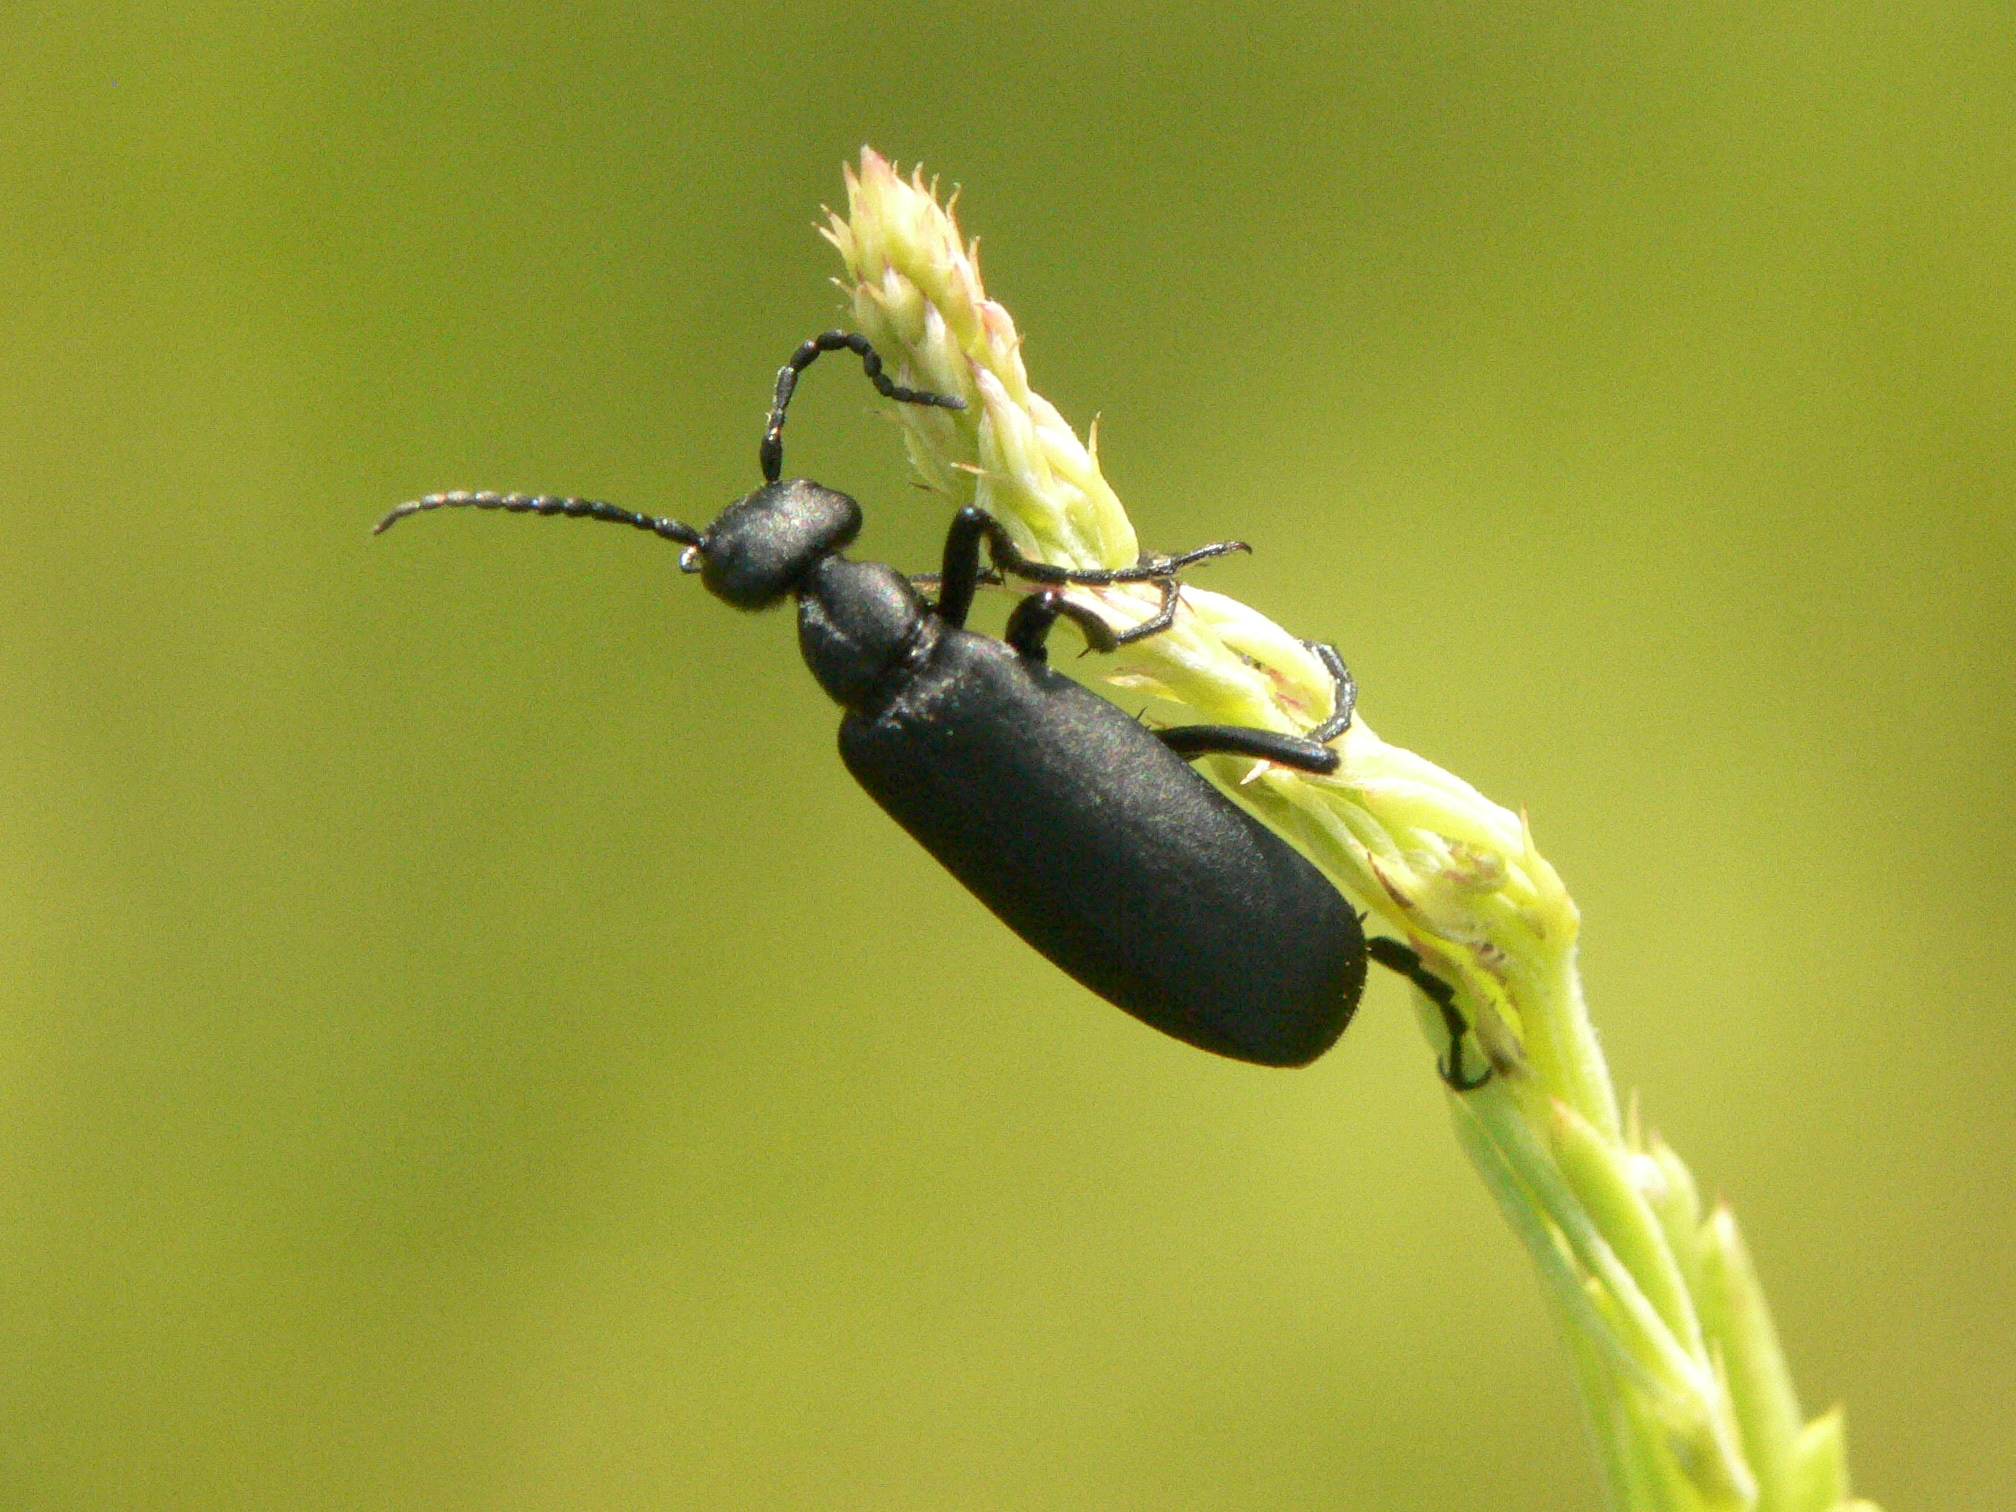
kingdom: Animalia
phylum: Arthropoda
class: Insecta
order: Coleoptera
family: Meloidae
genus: Epicauta
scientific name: Epicauta pensylvanica
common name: Black blister beetle
